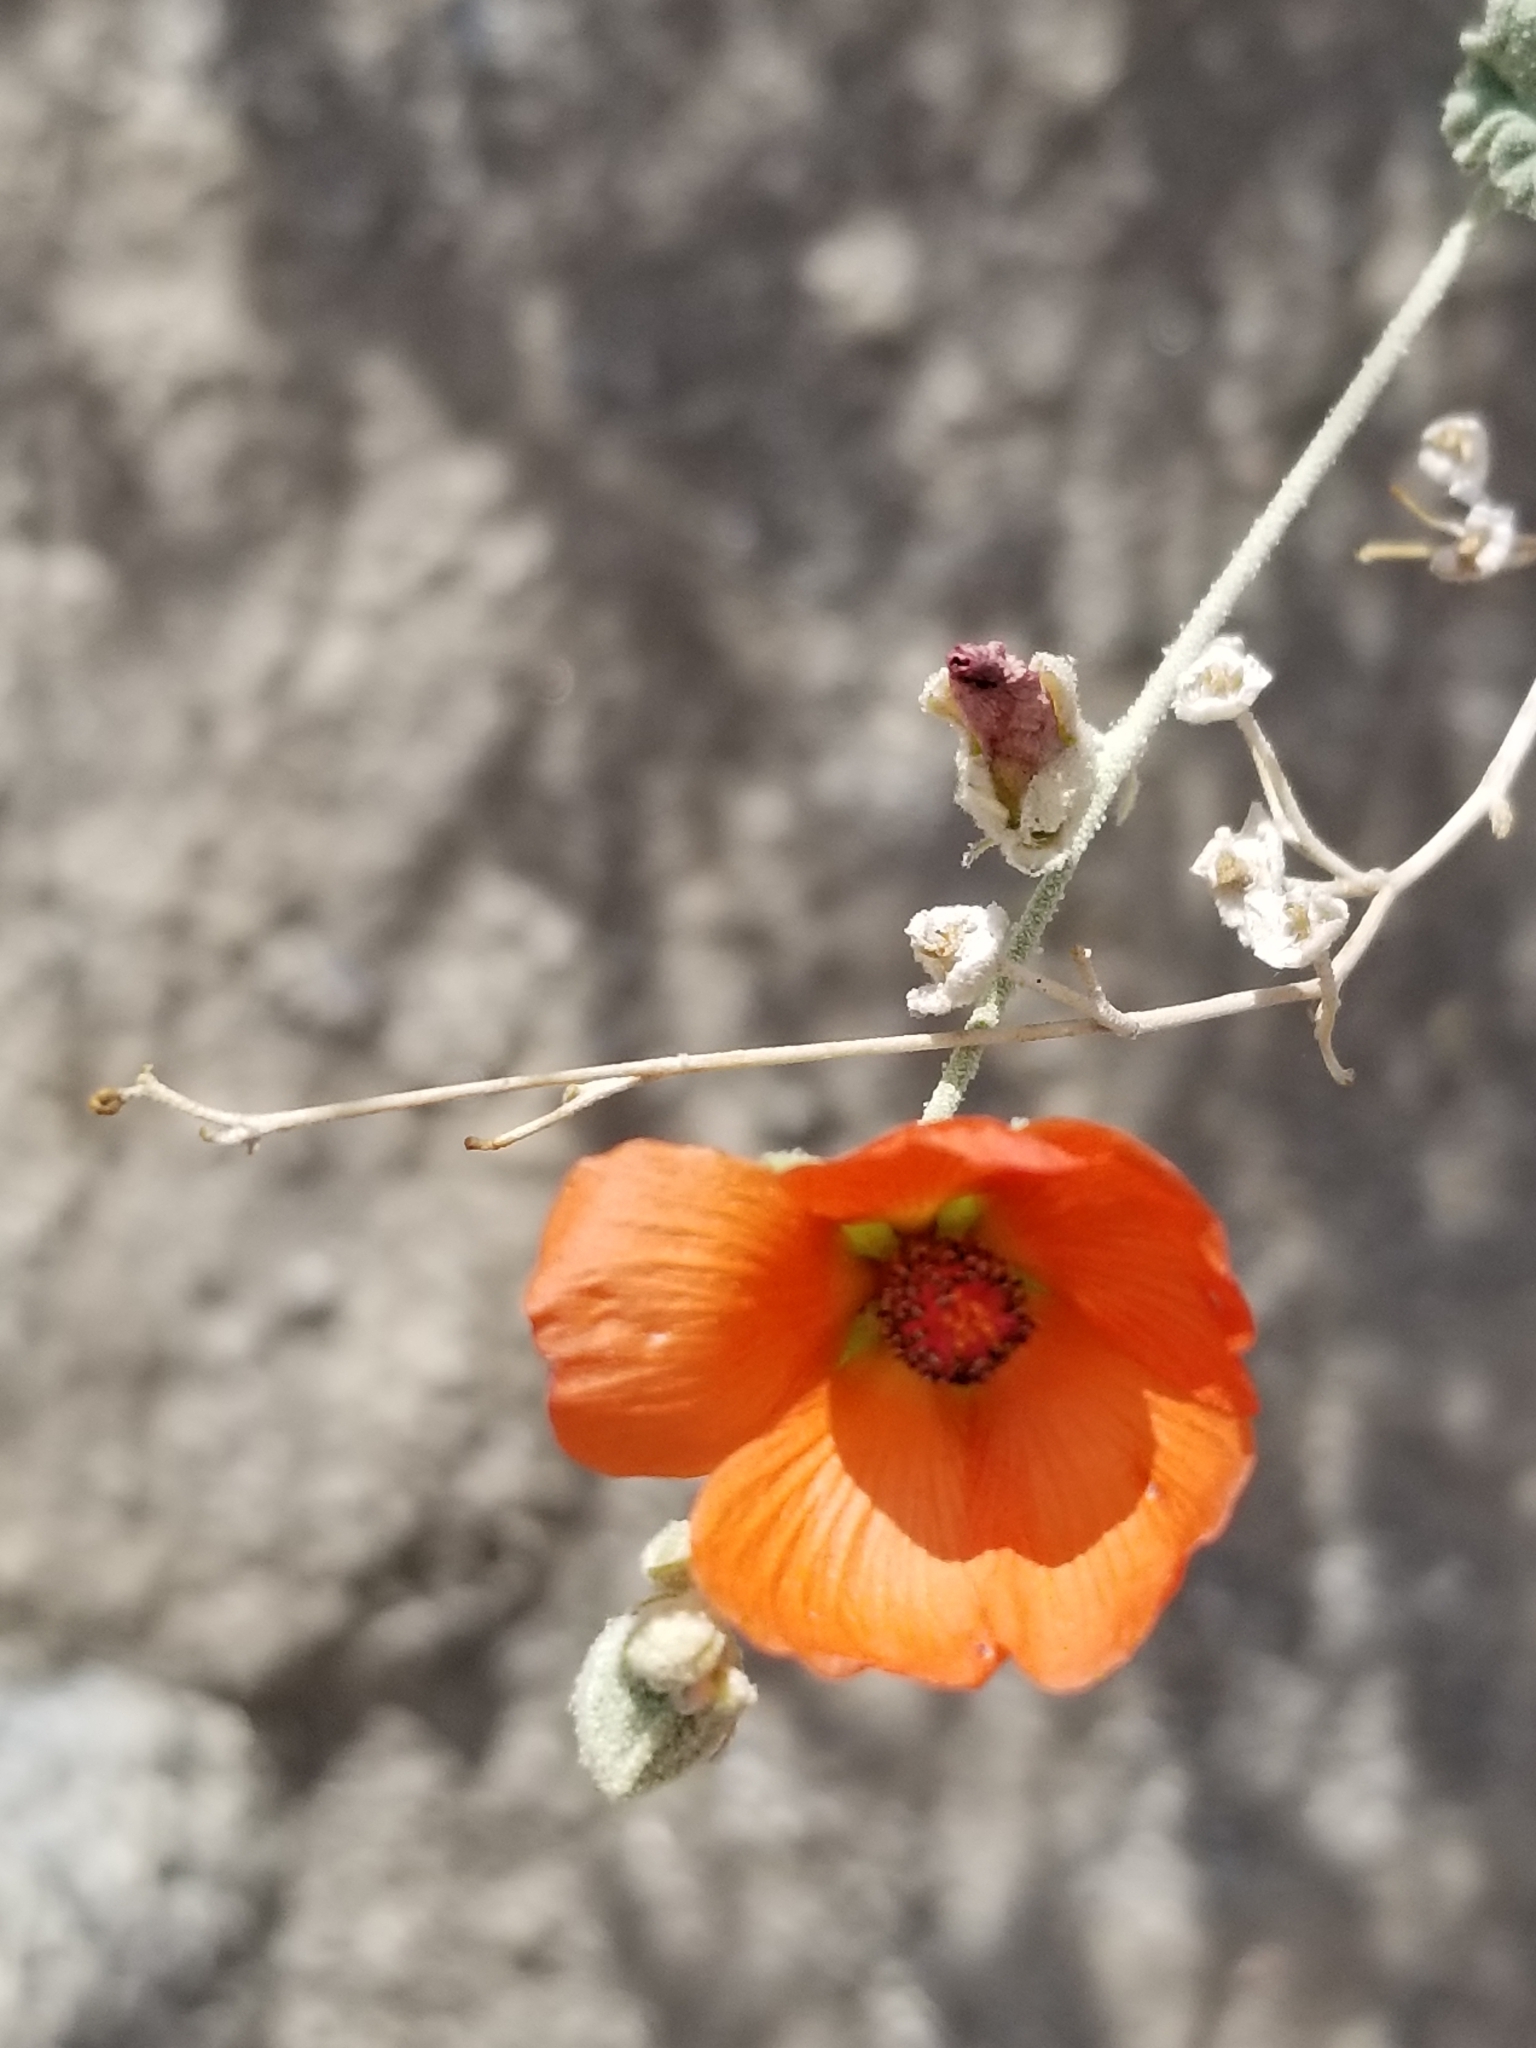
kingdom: Plantae
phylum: Tracheophyta
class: Magnoliopsida
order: Malvales
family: Malvaceae
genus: Sphaeralcea
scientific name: Sphaeralcea ambigua
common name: Apricot globe-mallow
